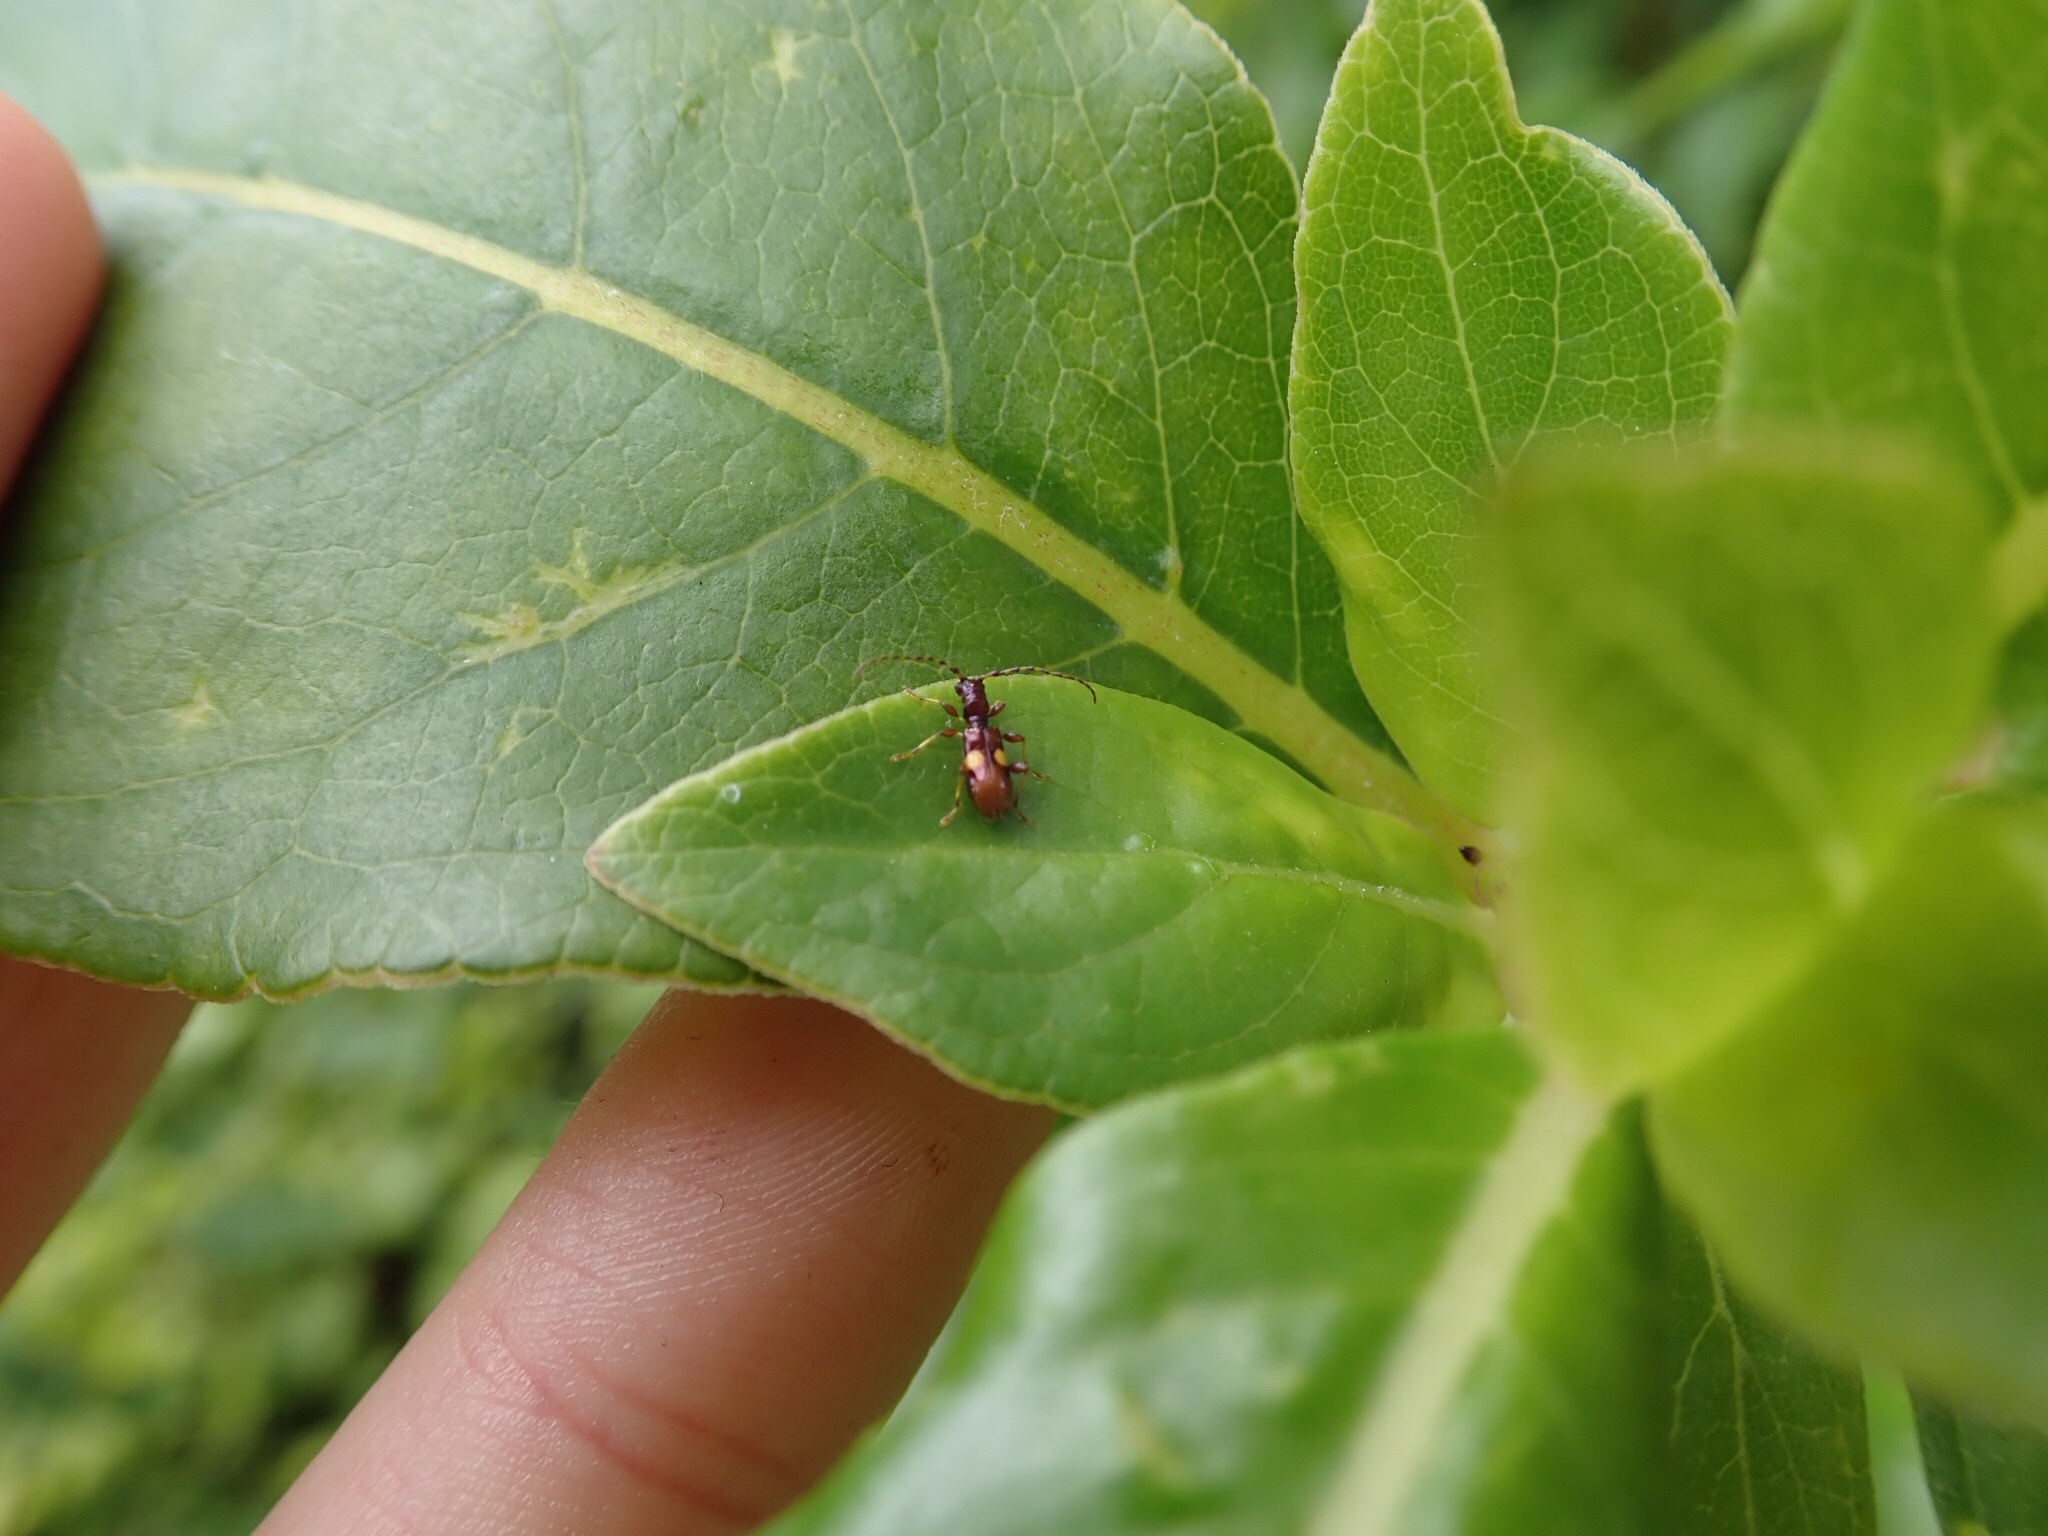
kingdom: Animalia
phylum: Arthropoda
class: Insecta
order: Coleoptera
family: Cerambycidae
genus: Zorion
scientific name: Zorion guttigerum
